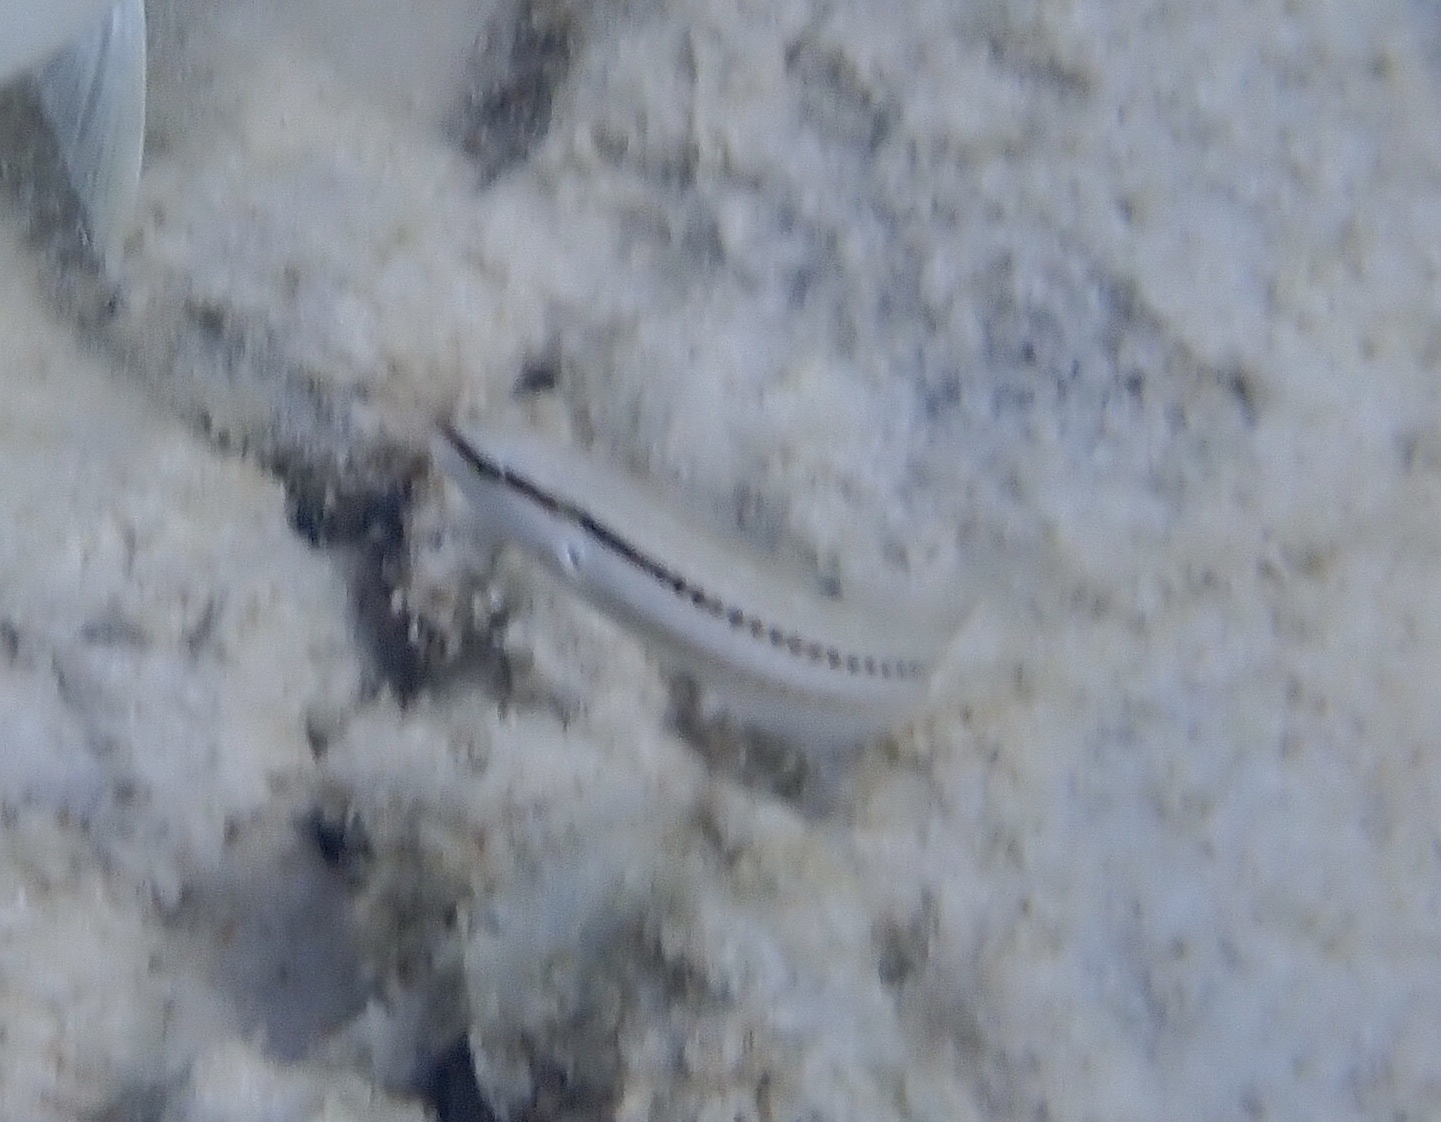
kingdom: Animalia
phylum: Chordata
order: Perciformes
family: Labridae
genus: Halichoeres
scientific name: Halichoeres bivittatus
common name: Slippery dick
